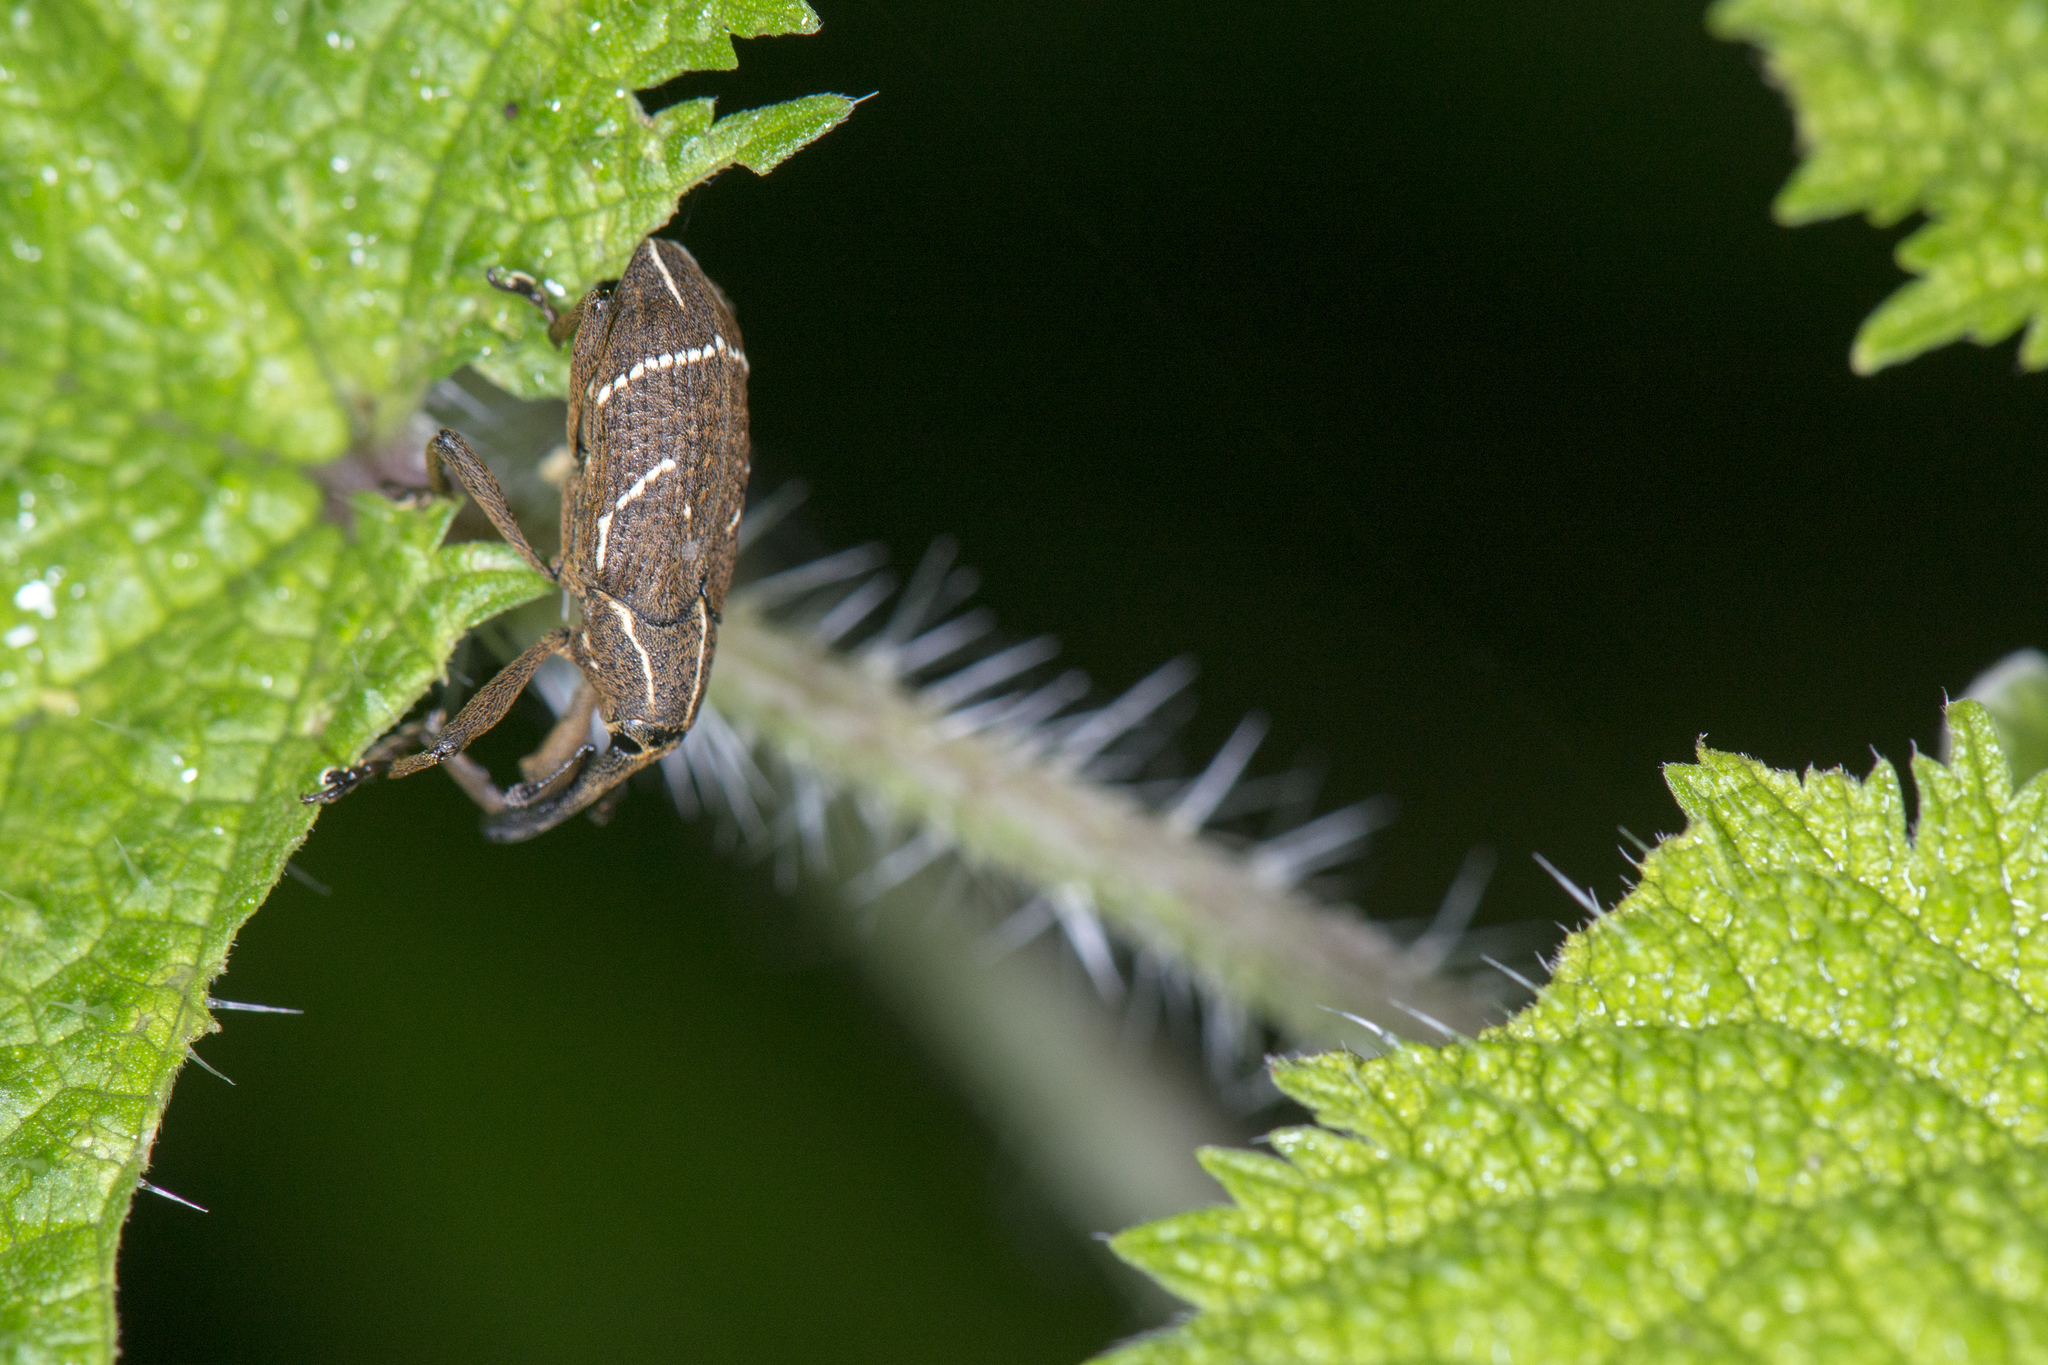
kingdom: Animalia
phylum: Arthropoda
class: Insecta
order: Coleoptera
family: Curculionidae
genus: Alcides
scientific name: Alcides flavosignatus
